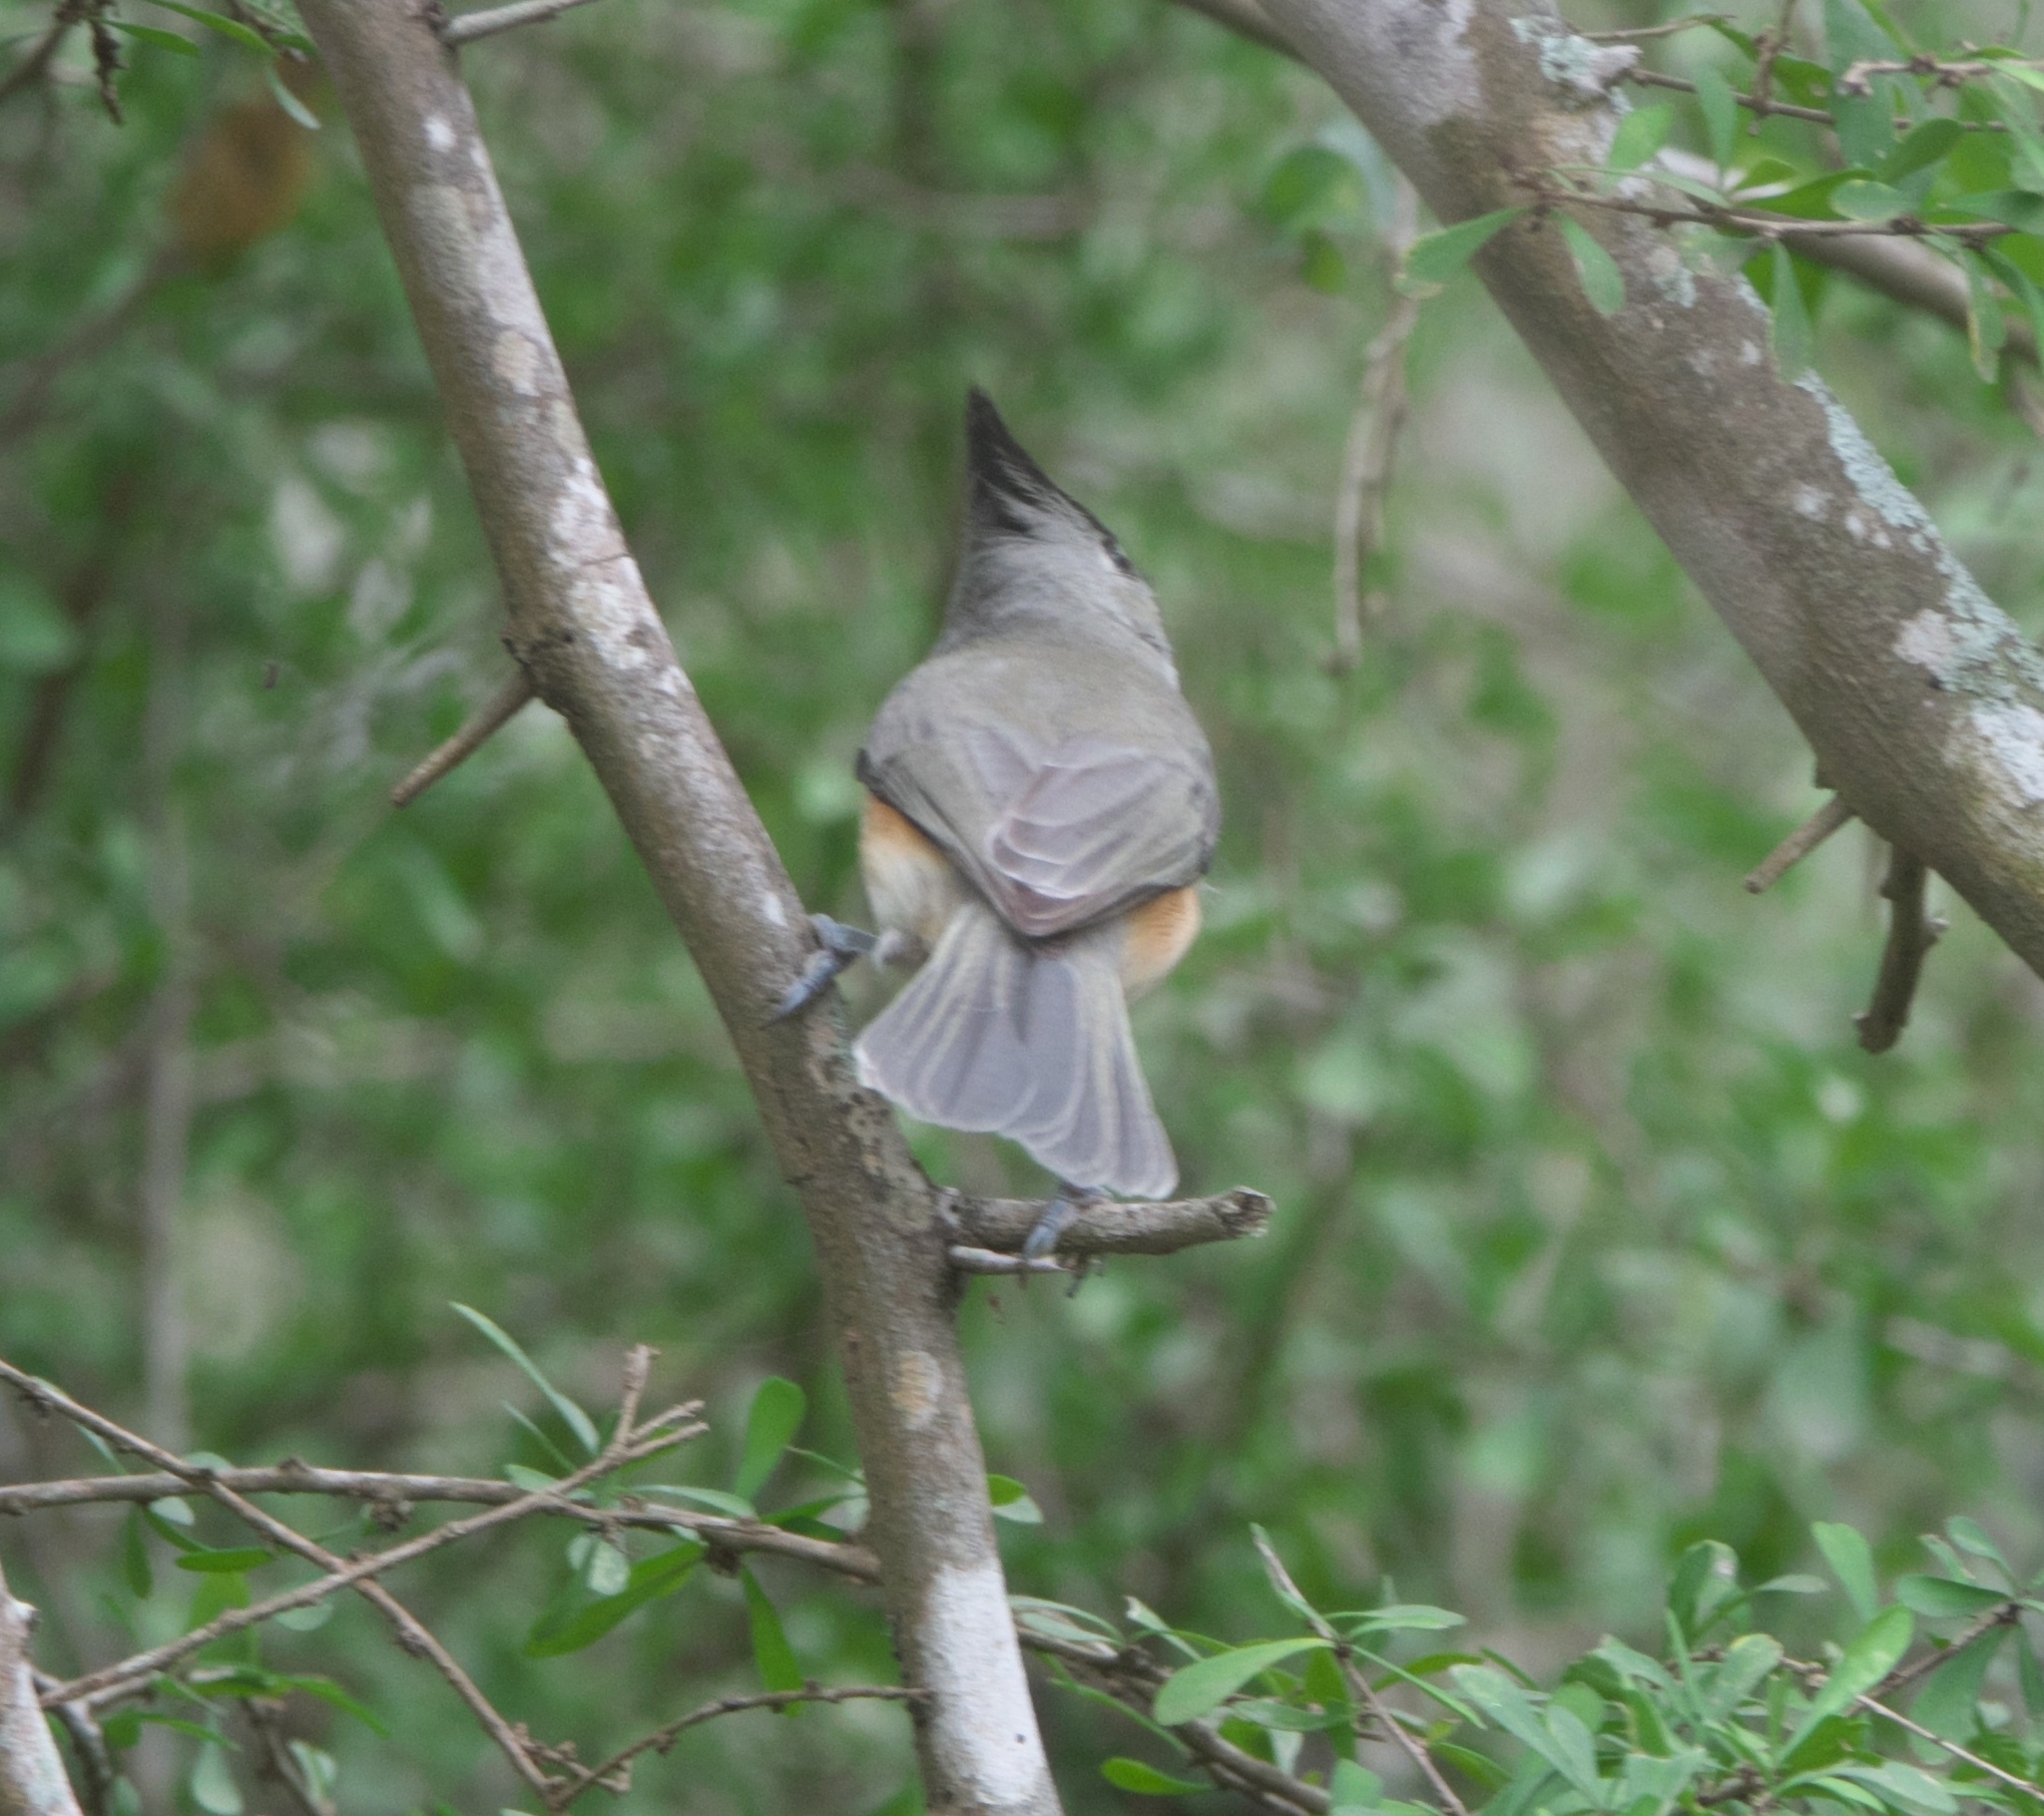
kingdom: Animalia
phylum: Chordata
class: Aves
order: Passeriformes
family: Paridae
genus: Baeolophus
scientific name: Baeolophus atricristatus
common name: Black-crested titmouse
